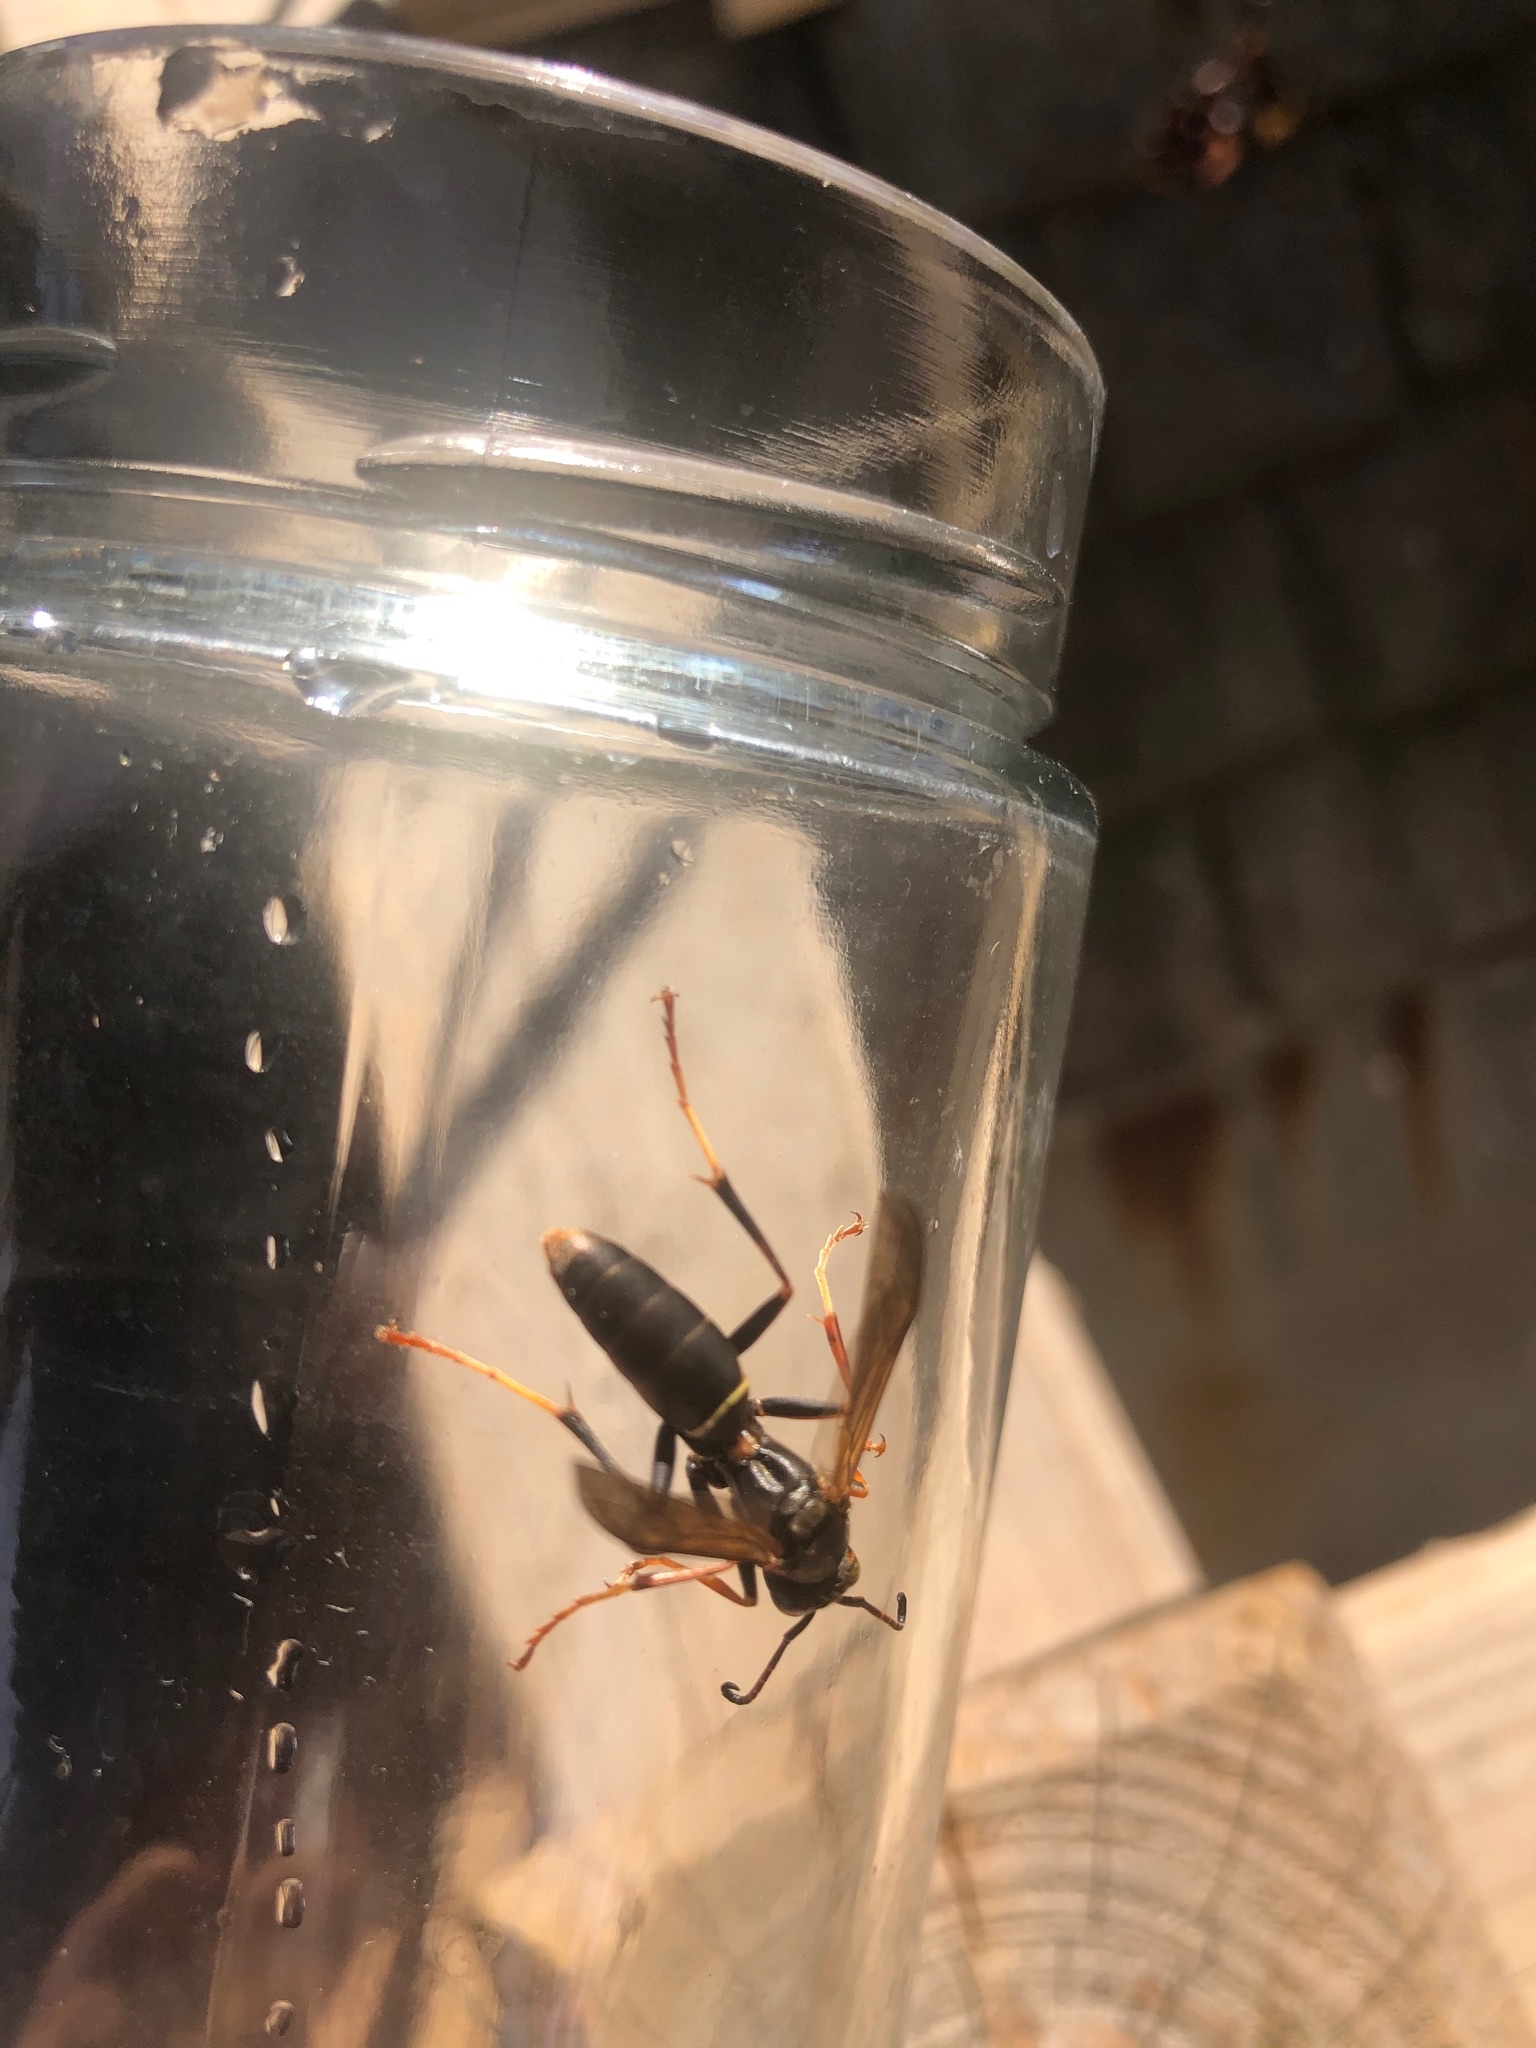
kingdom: Animalia
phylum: Arthropoda
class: Insecta
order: Hymenoptera
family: Eumenidae
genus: Polistes
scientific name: Polistes fuscatus
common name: Dark paper wasp
